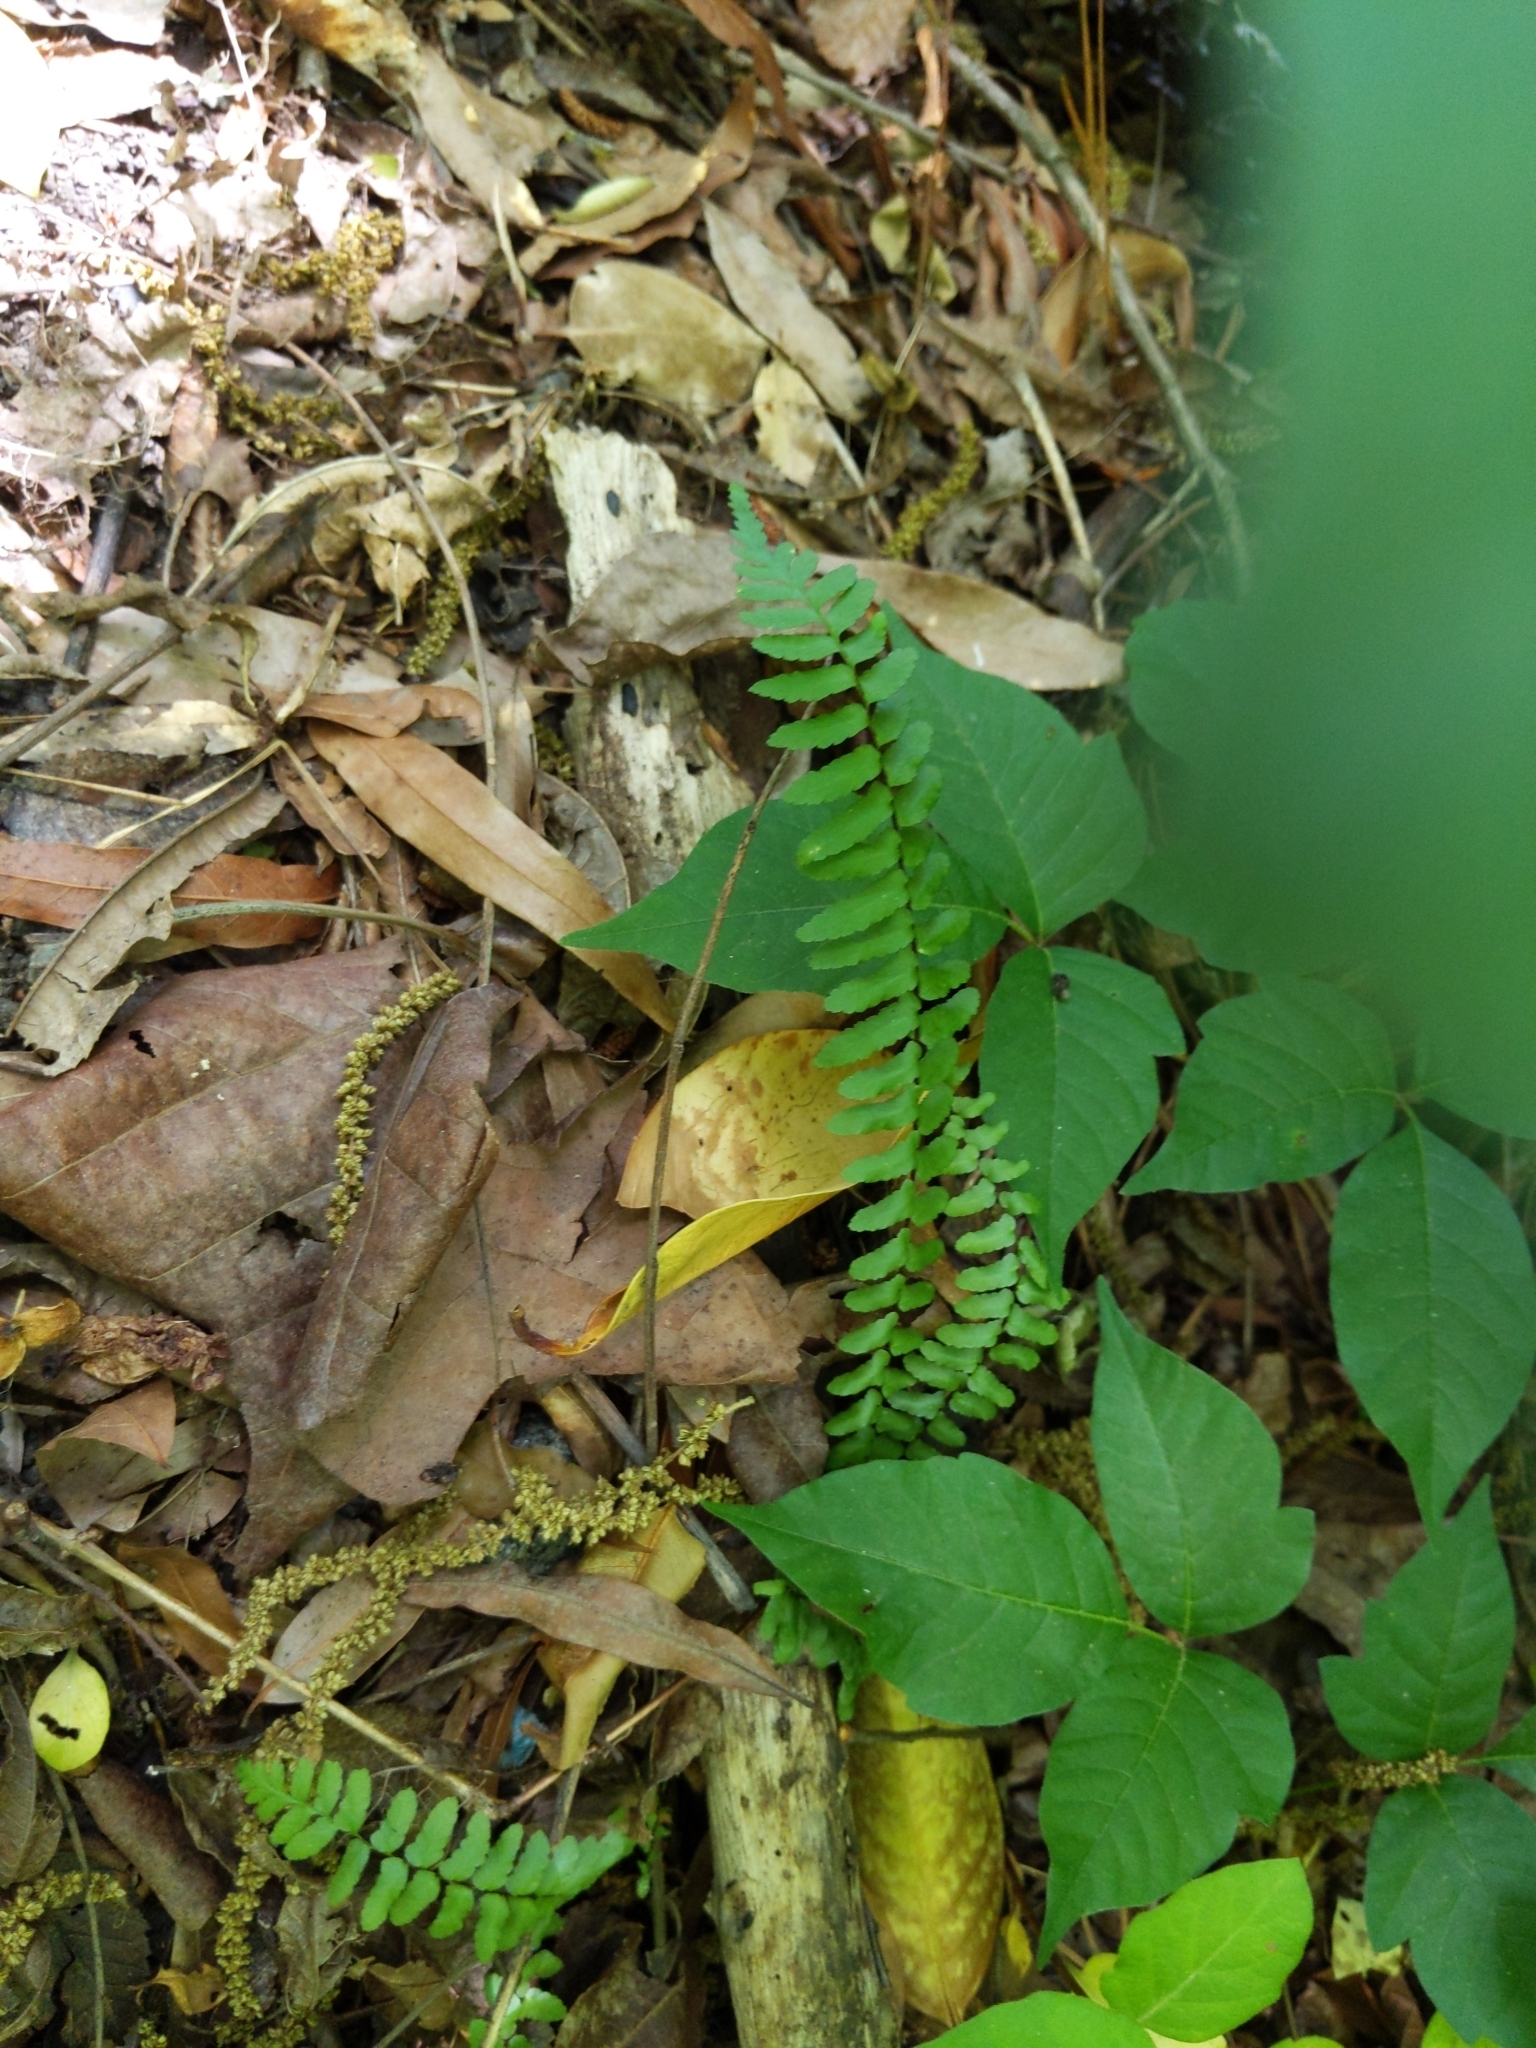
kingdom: Plantae
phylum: Tracheophyta
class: Polypodiopsida
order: Polypodiales
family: Aspleniaceae
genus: Asplenium
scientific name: Asplenium platyneuron
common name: Ebony spleenwort
